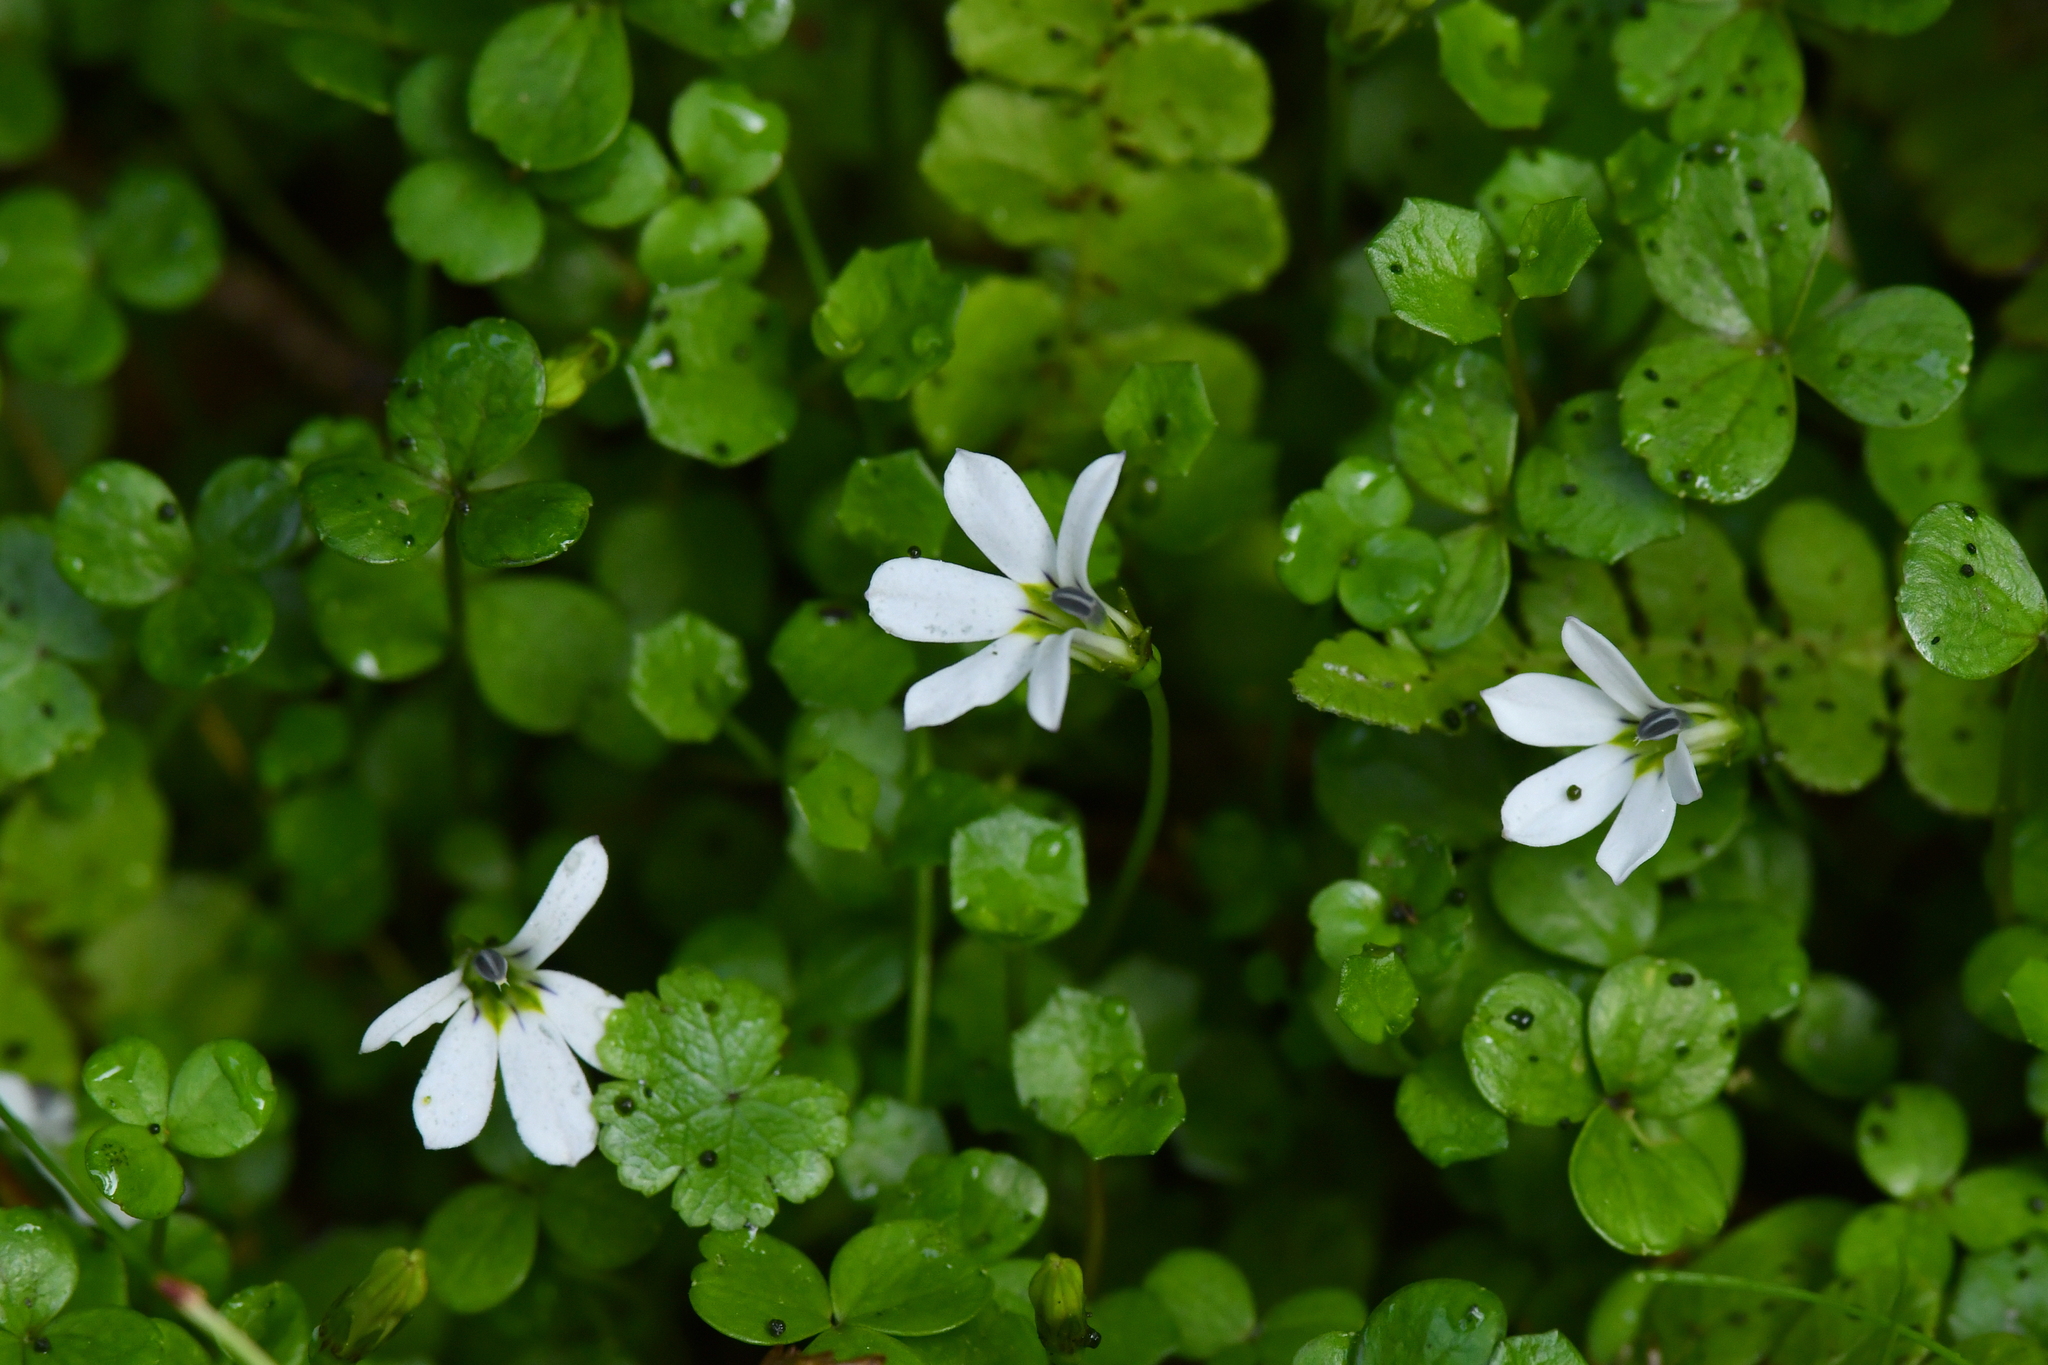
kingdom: Plantae
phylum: Tracheophyta
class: Magnoliopsida
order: Asterales
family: Campanulaceae
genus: Lobelia
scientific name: Lobelia angulata
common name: Lawn lobelia
